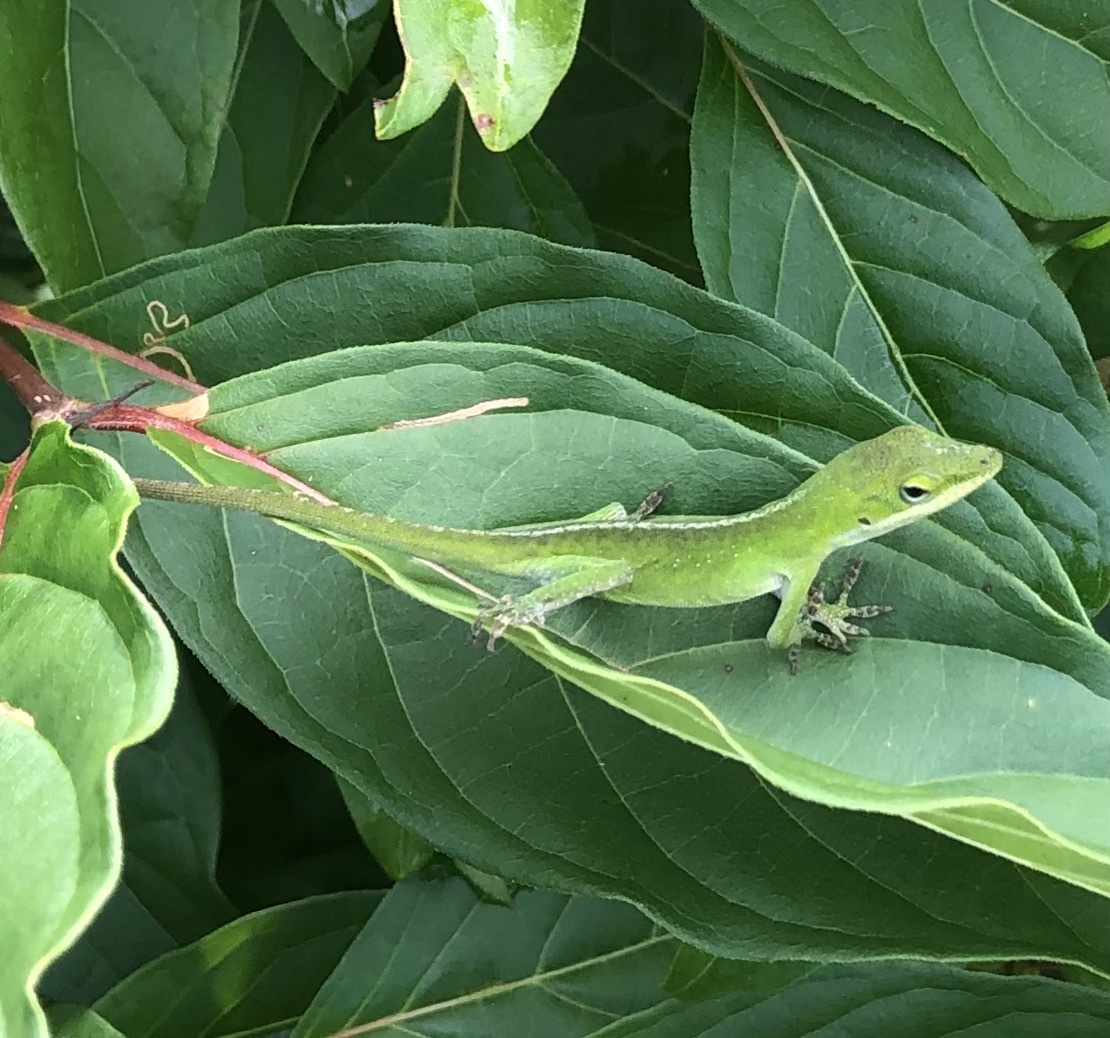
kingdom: Animalia
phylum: Chordata
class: Squamata
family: Dactyloidae
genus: Anolis
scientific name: Anolis carolinensis
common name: Green anole
